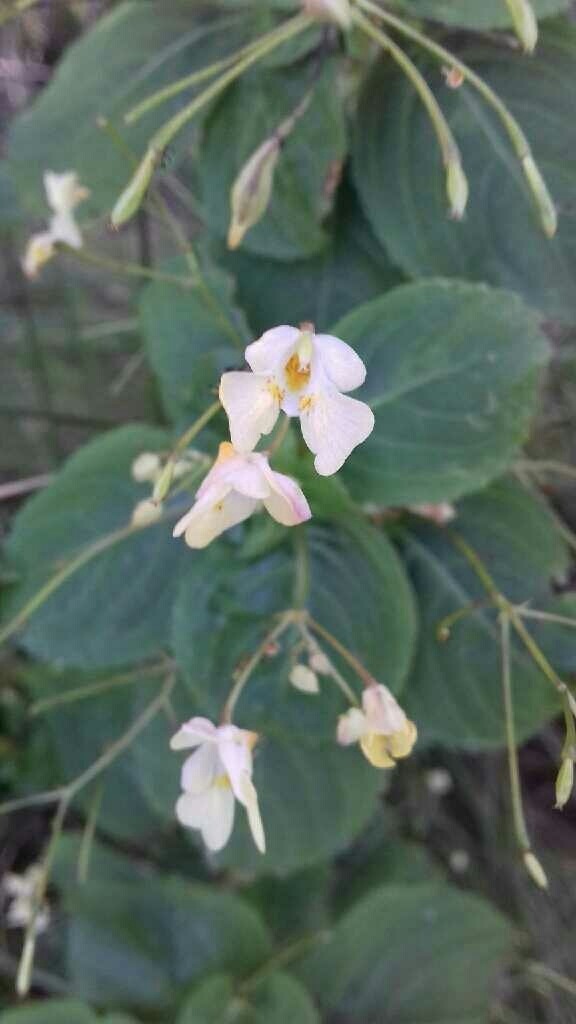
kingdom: Plantae
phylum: Tracheophyta
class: Magnoliopsida
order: Ericales
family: Balsaminaceae
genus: Impatiens
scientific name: Impatiens parviflora
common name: Small balsam
